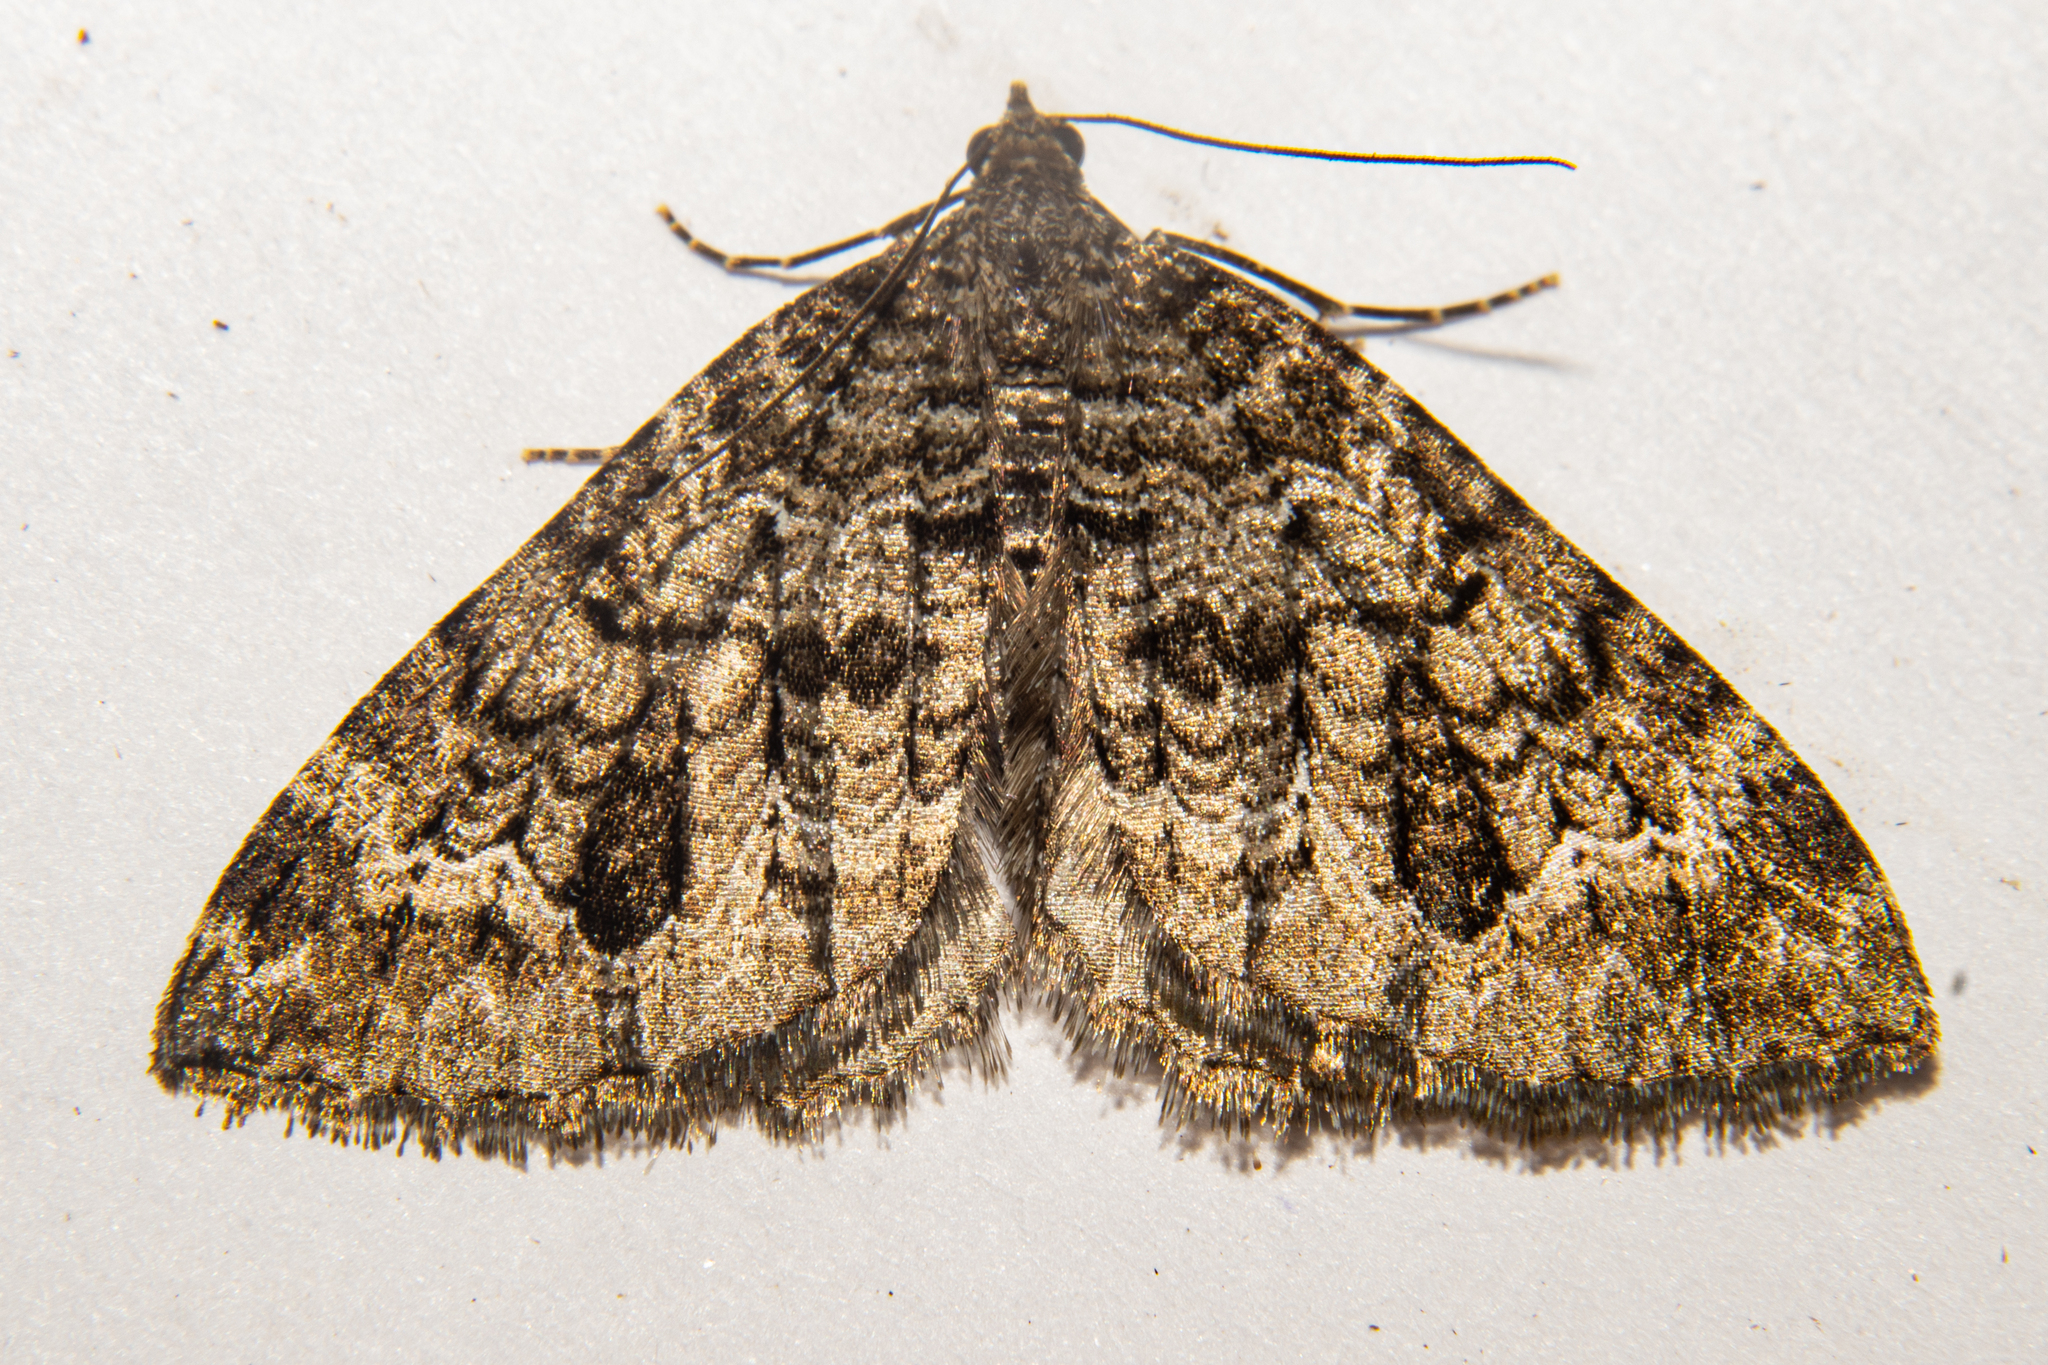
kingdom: Animalia
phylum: Arthropoda
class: Insecta
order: Lepidoptera
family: Geometridae
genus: Hydriomena
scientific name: Hydriomena hemizona
